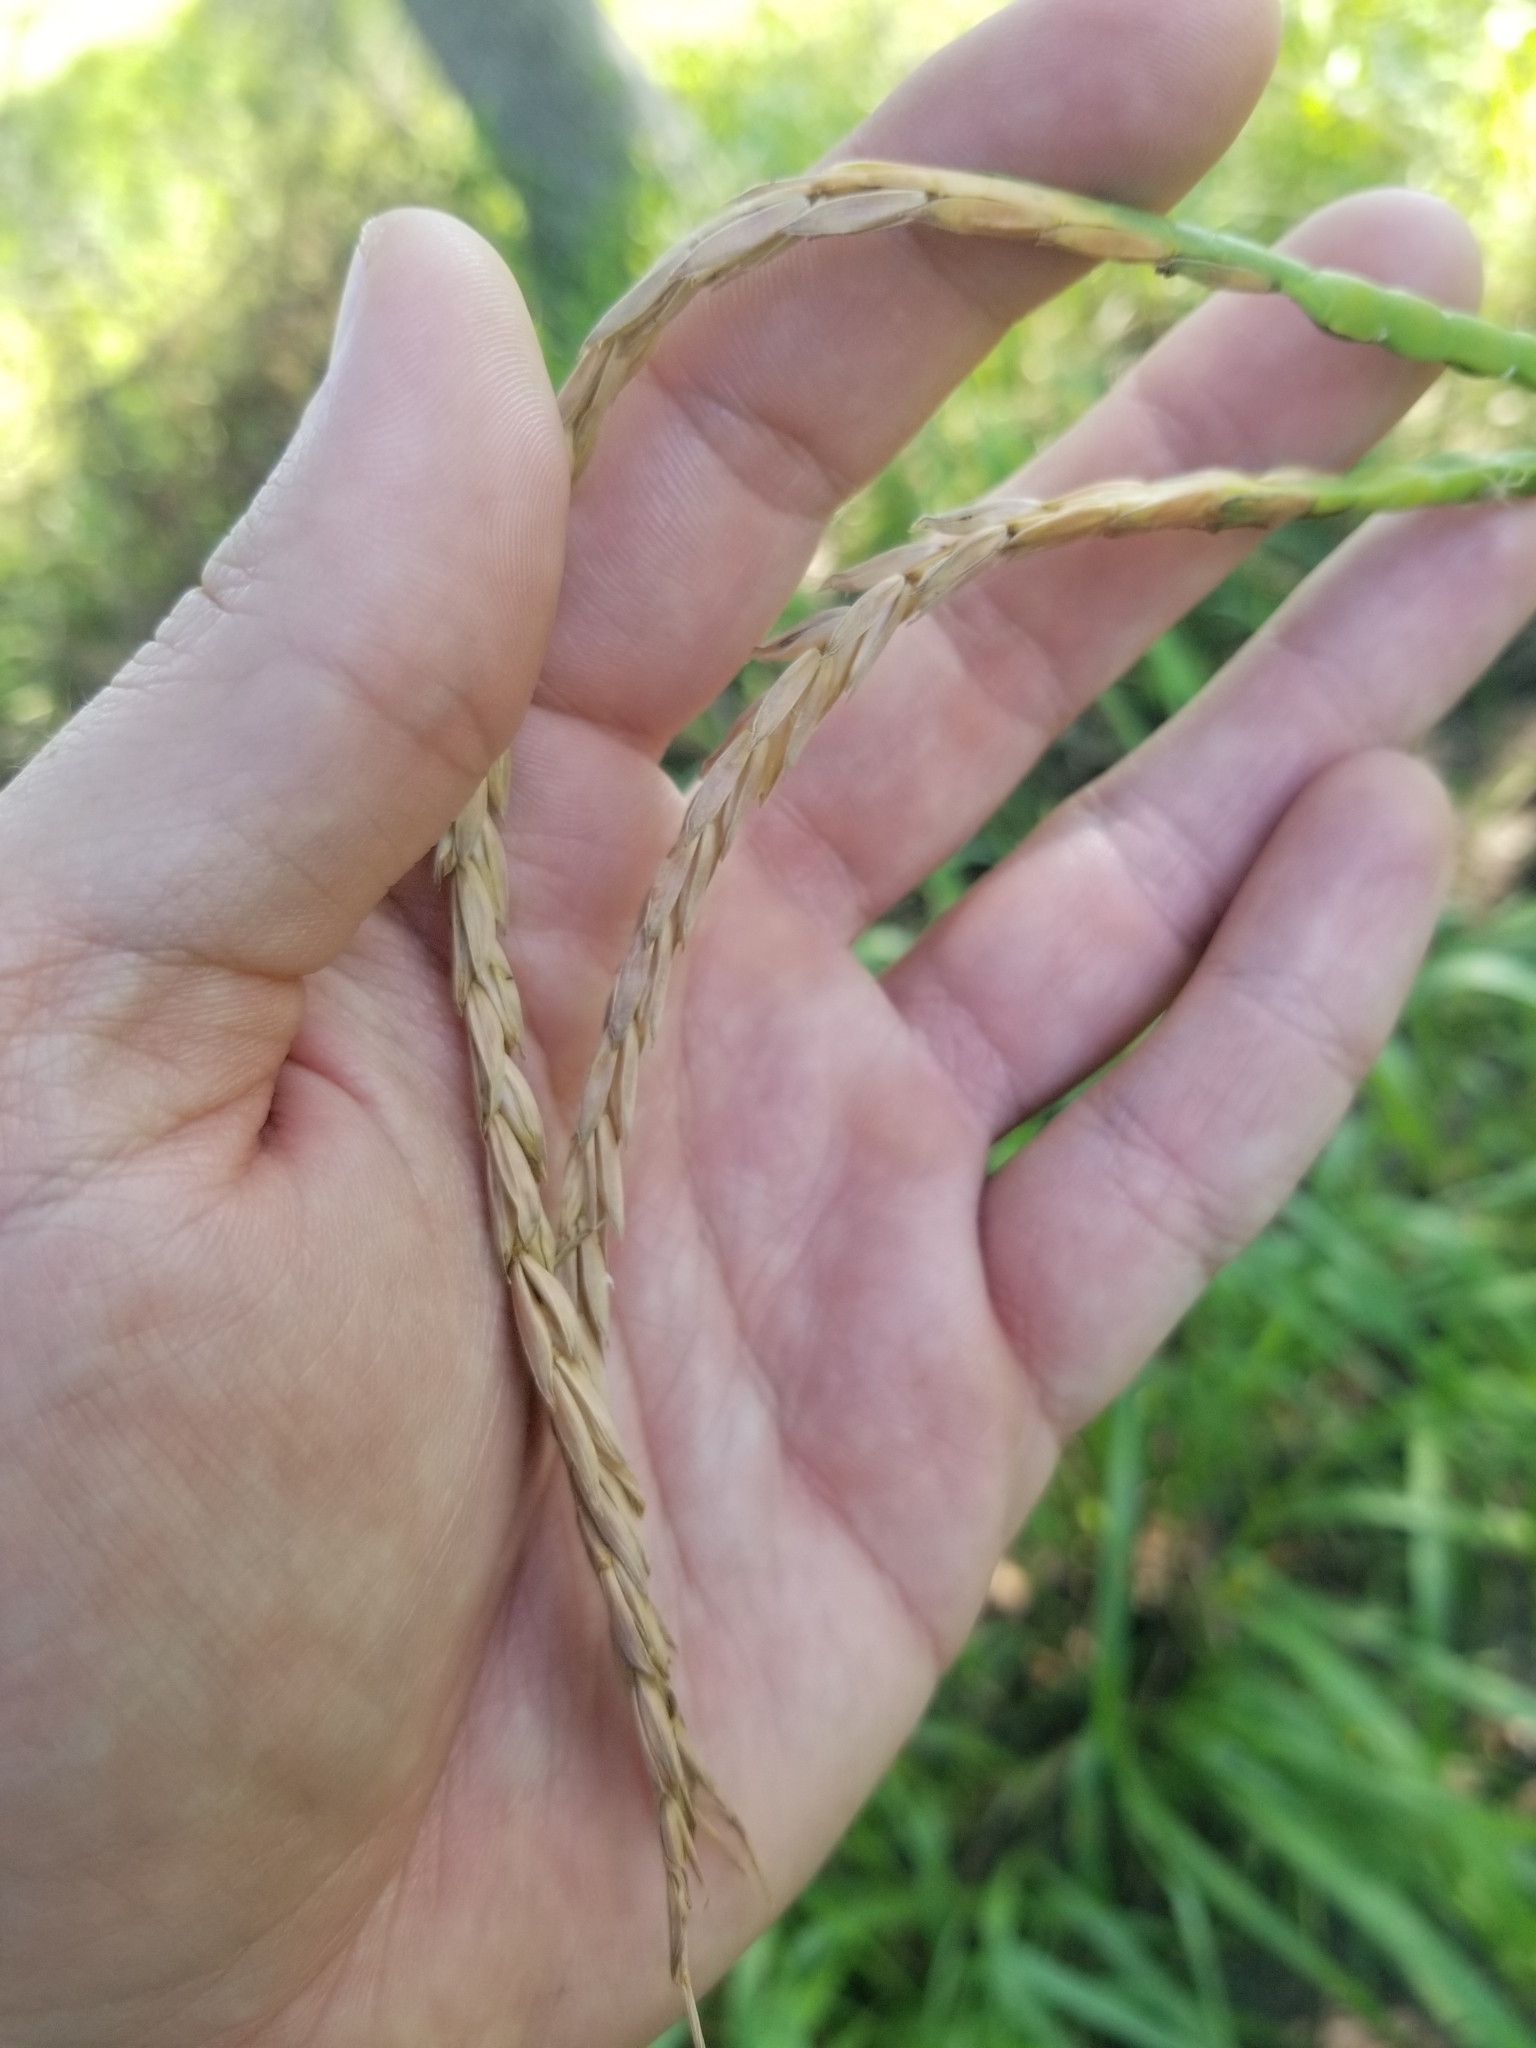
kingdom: Plantae
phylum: Tracheophyta
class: Liliopsida
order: Poales
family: Poaceae
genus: Tripsacum
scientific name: Tripsacum dactyloides
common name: Buffalo-grass
